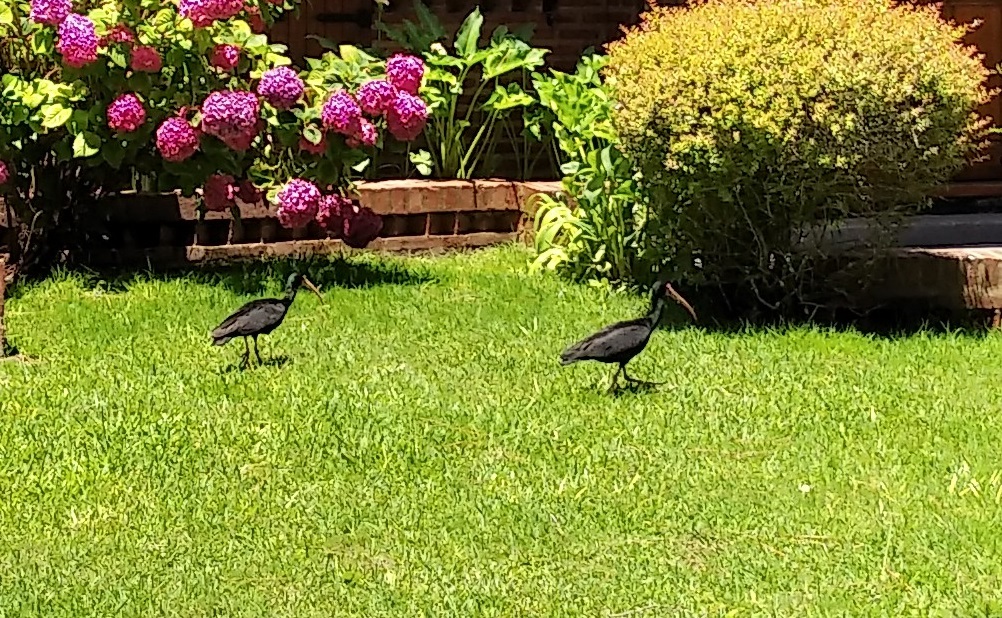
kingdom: Animalia
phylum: Chordata
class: Aves
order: Pelecaniformes
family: Threskiornithidae
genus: Phimosus
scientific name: Phimosus infuscatus
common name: Bare-faced ibis
